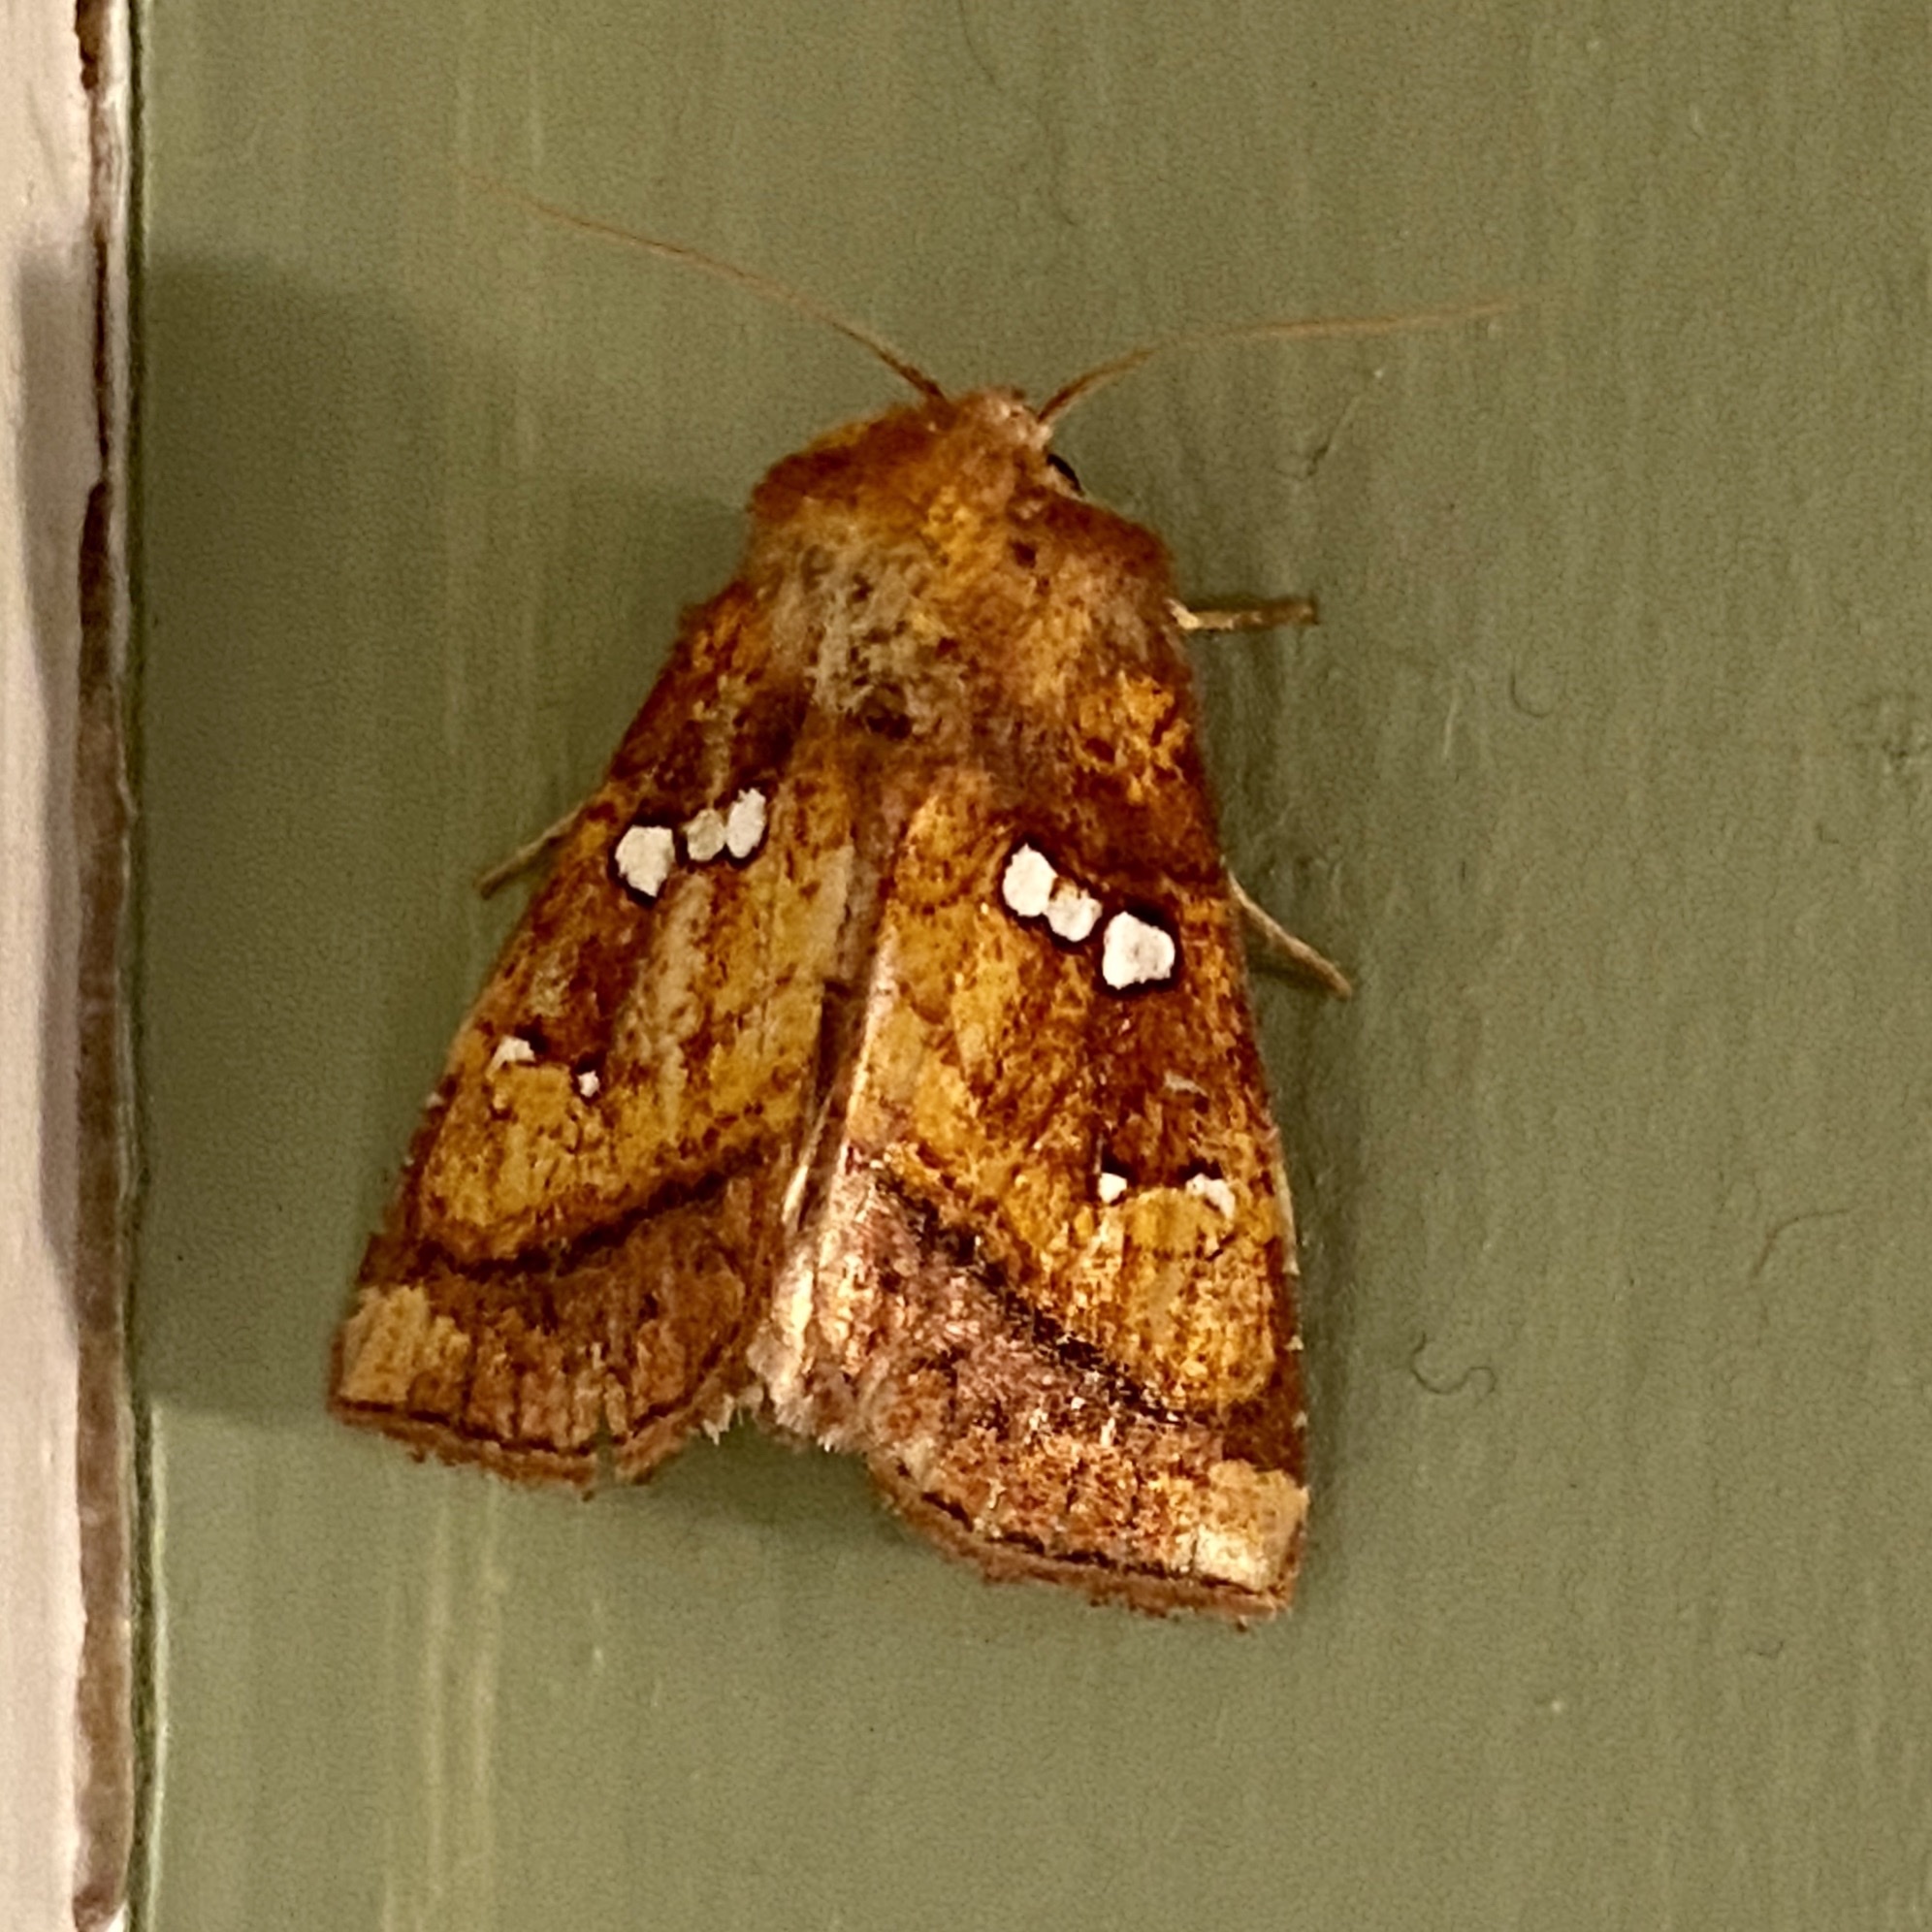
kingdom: Animalia
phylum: Arthropoda
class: Insecta
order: Lepidoptera
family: Noctuidae
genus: Papaipema
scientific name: Papaipema lysimachiae
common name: Loosestrife borer moth
